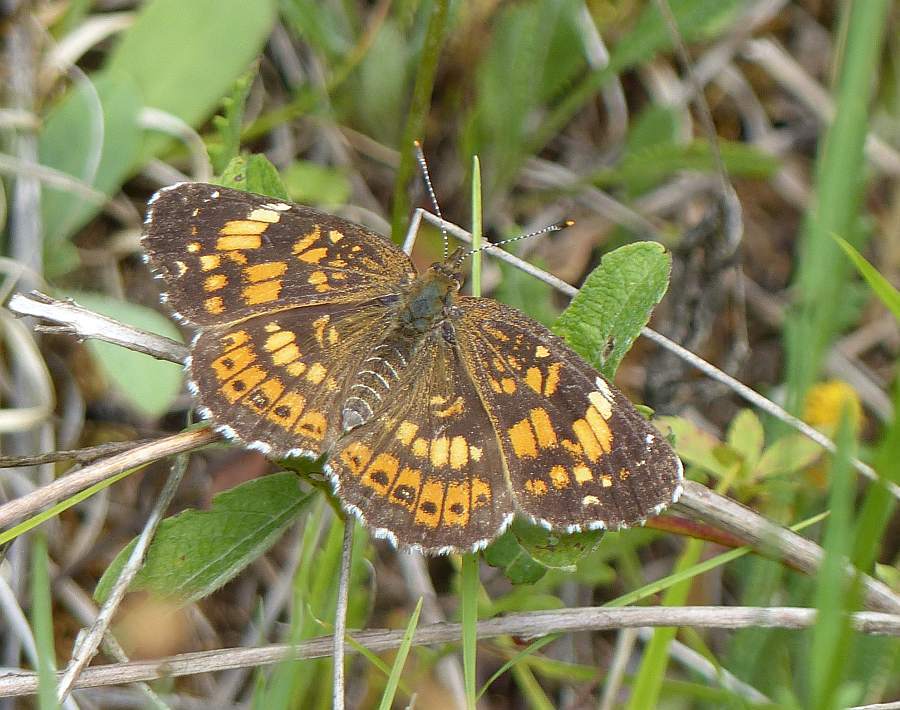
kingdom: Animalia
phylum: Arthropoda
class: Insecta
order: Lepidoptera
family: Nymphalidae
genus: Chlosyne
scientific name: Chlosyne nycteis
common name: Silvery checkerspot
